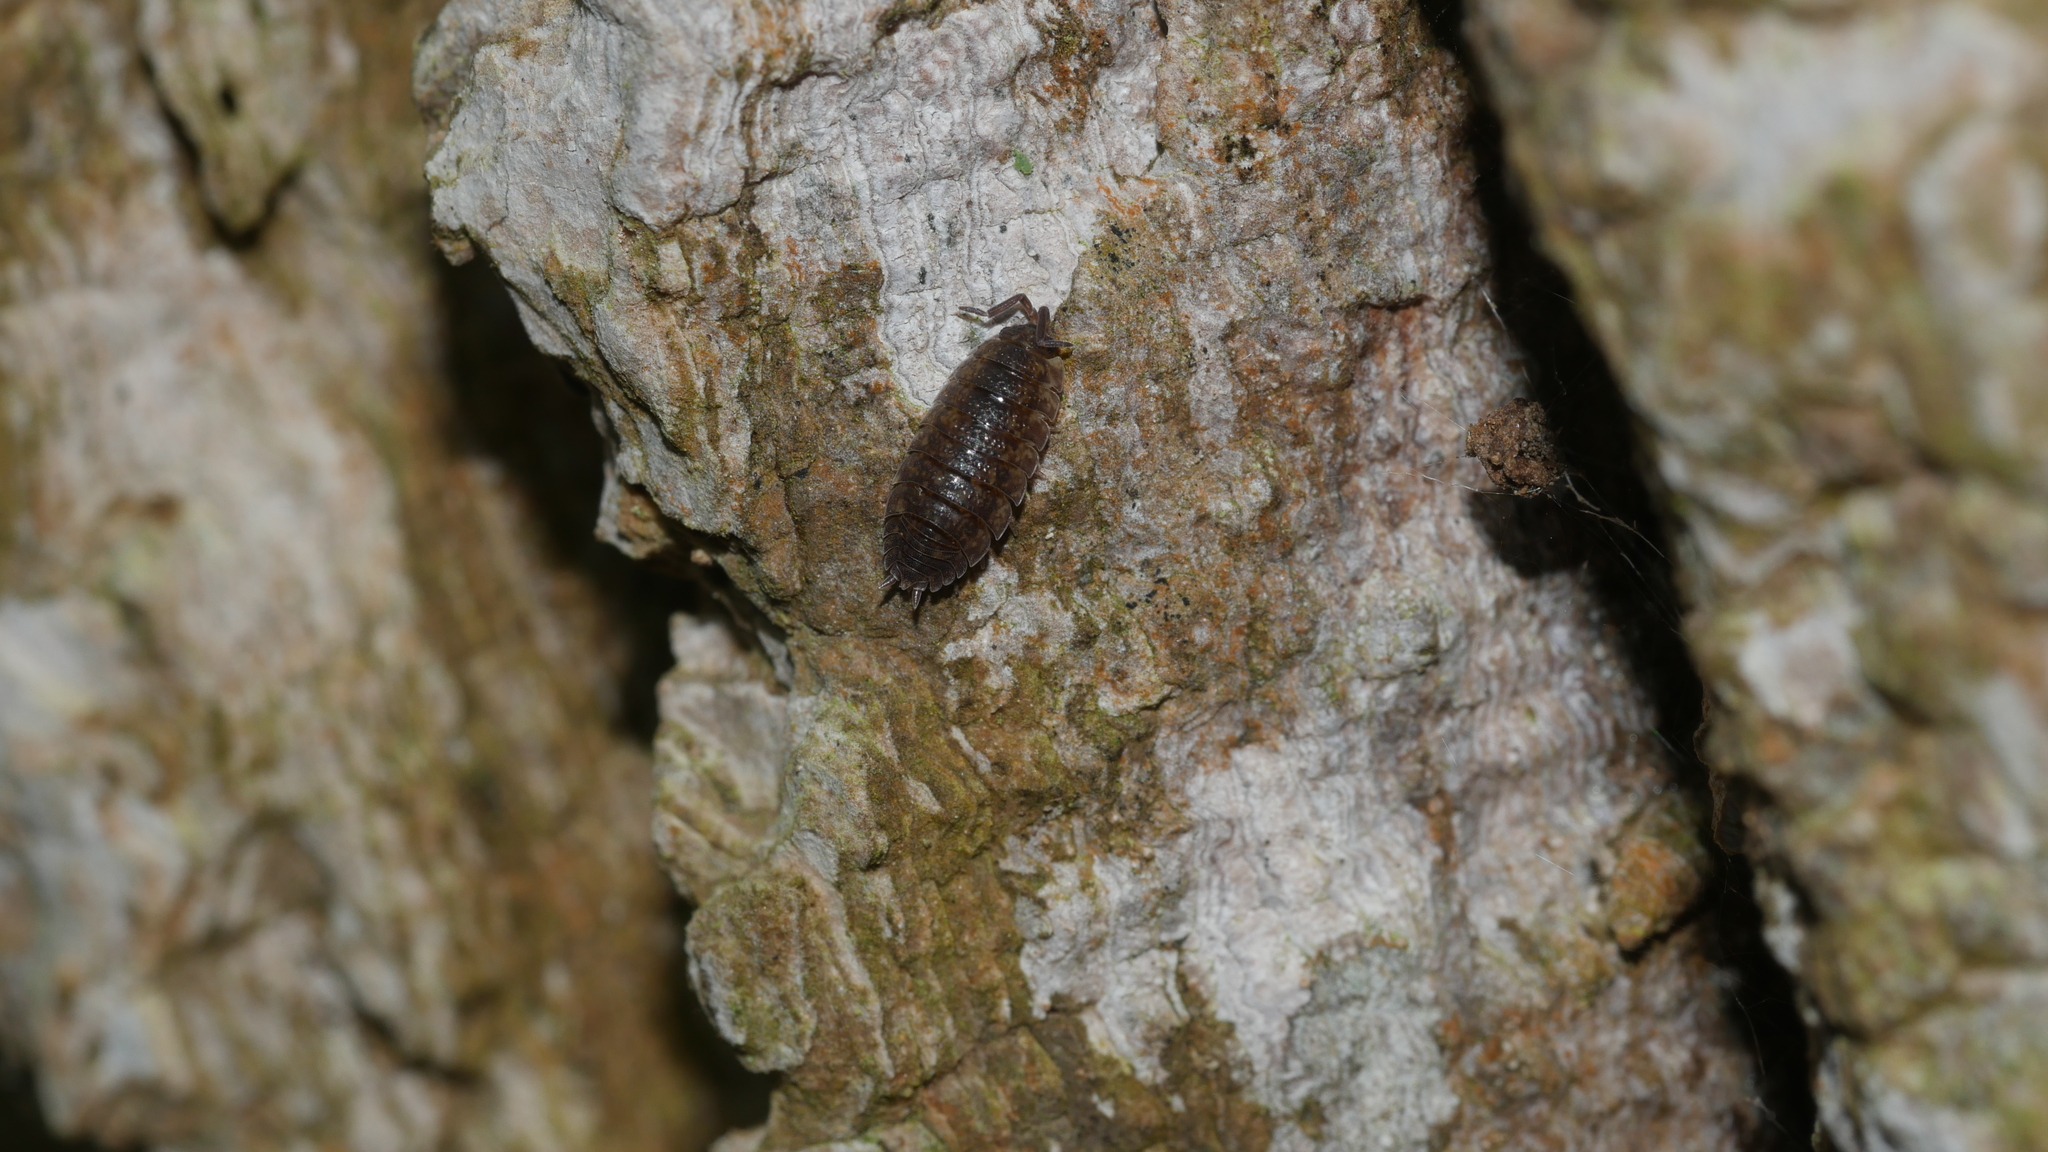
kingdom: Animalia
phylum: Arthropoda
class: Malacostraca
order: Isopoda
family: Porcellionidae
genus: Porcellio
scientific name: Porcellio scaber
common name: Common rough woodlouse
